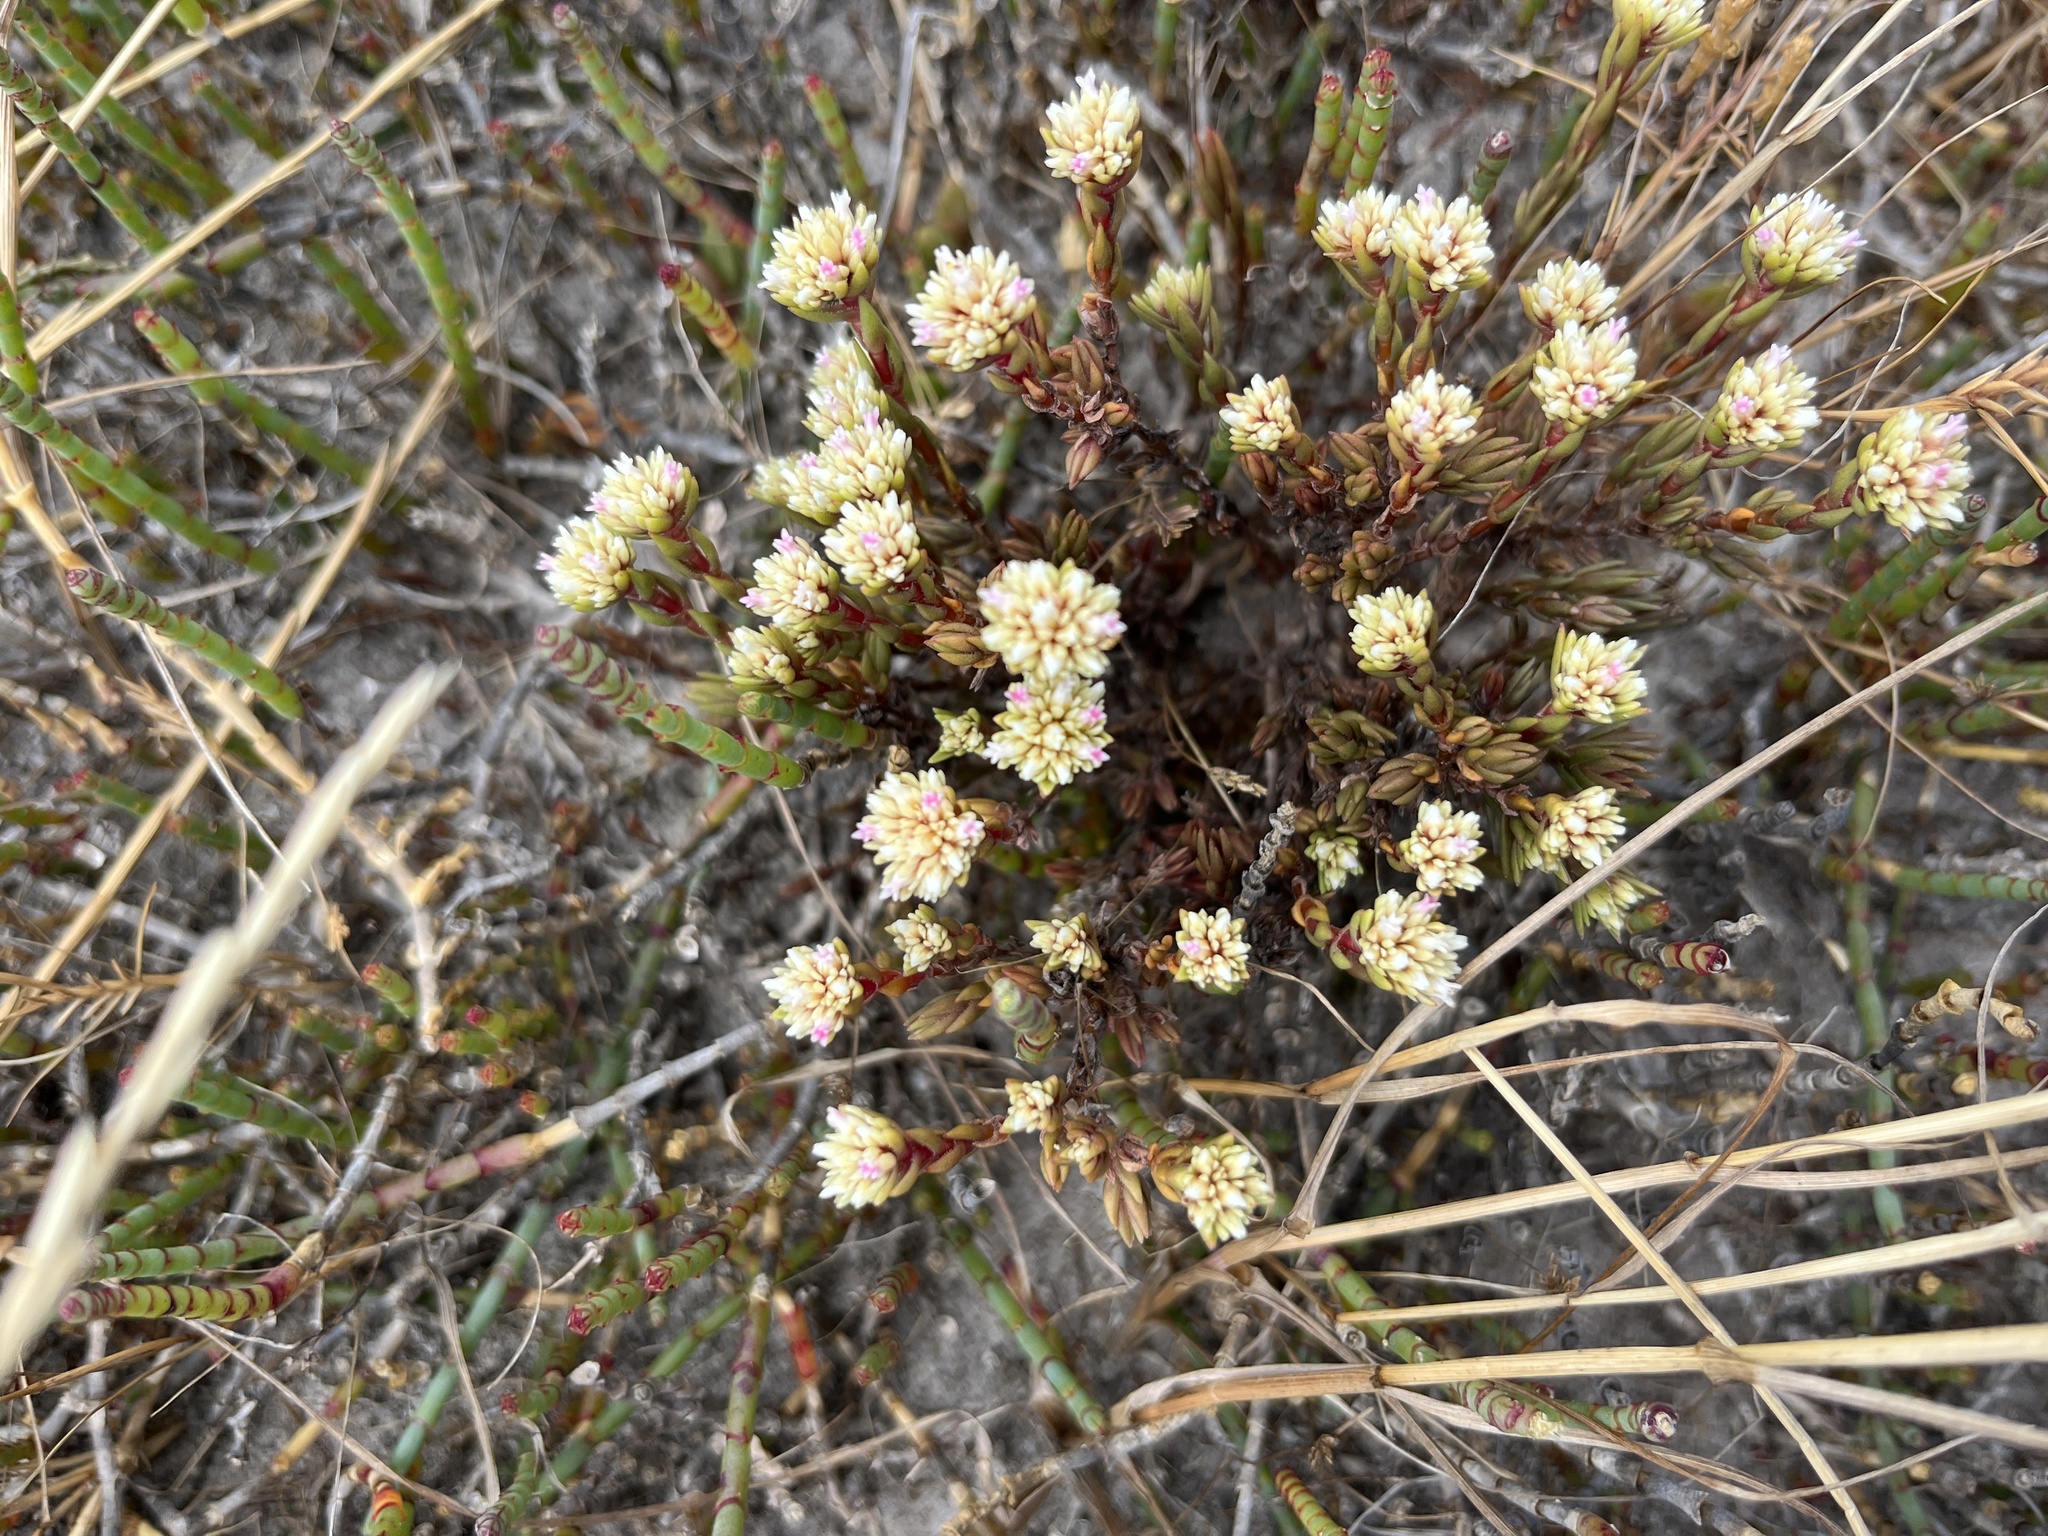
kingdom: Plantae
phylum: Tracheophyta
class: Magnoliopsida
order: Saxifragales
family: Crassulaceae
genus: Crassula
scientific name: Crassula subulata
